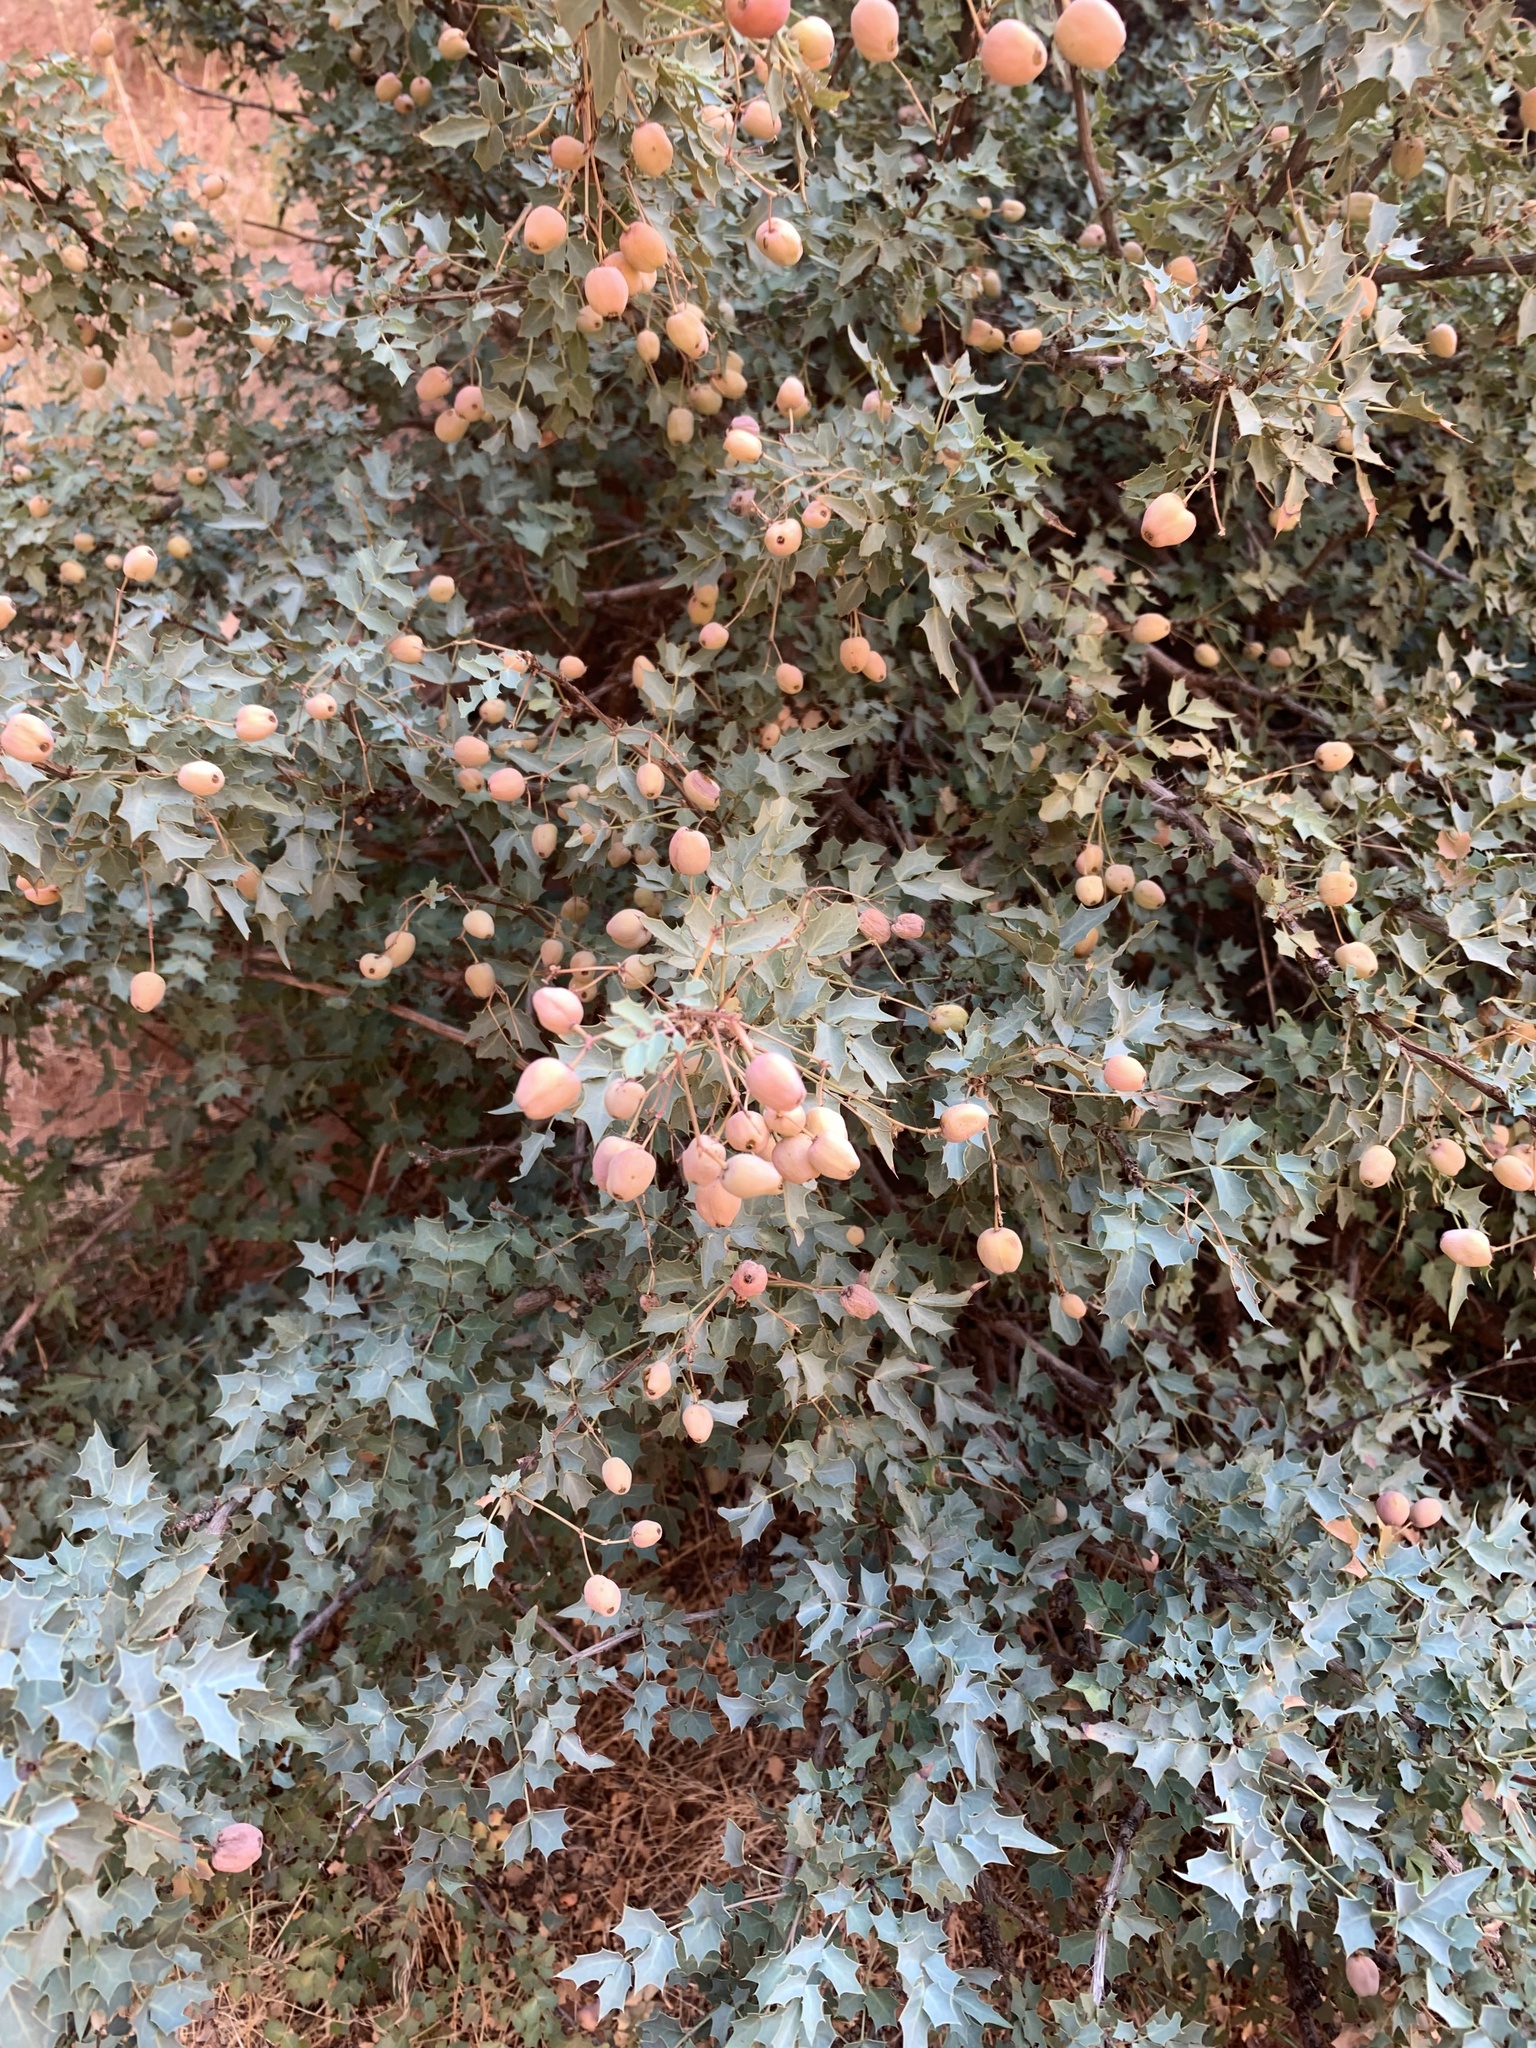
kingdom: Plantae
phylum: Tracheophyta
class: Magnoliopsida
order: Ranunculales
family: Berberidaceae
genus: Alloberberis
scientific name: Alloberberis fremontii
